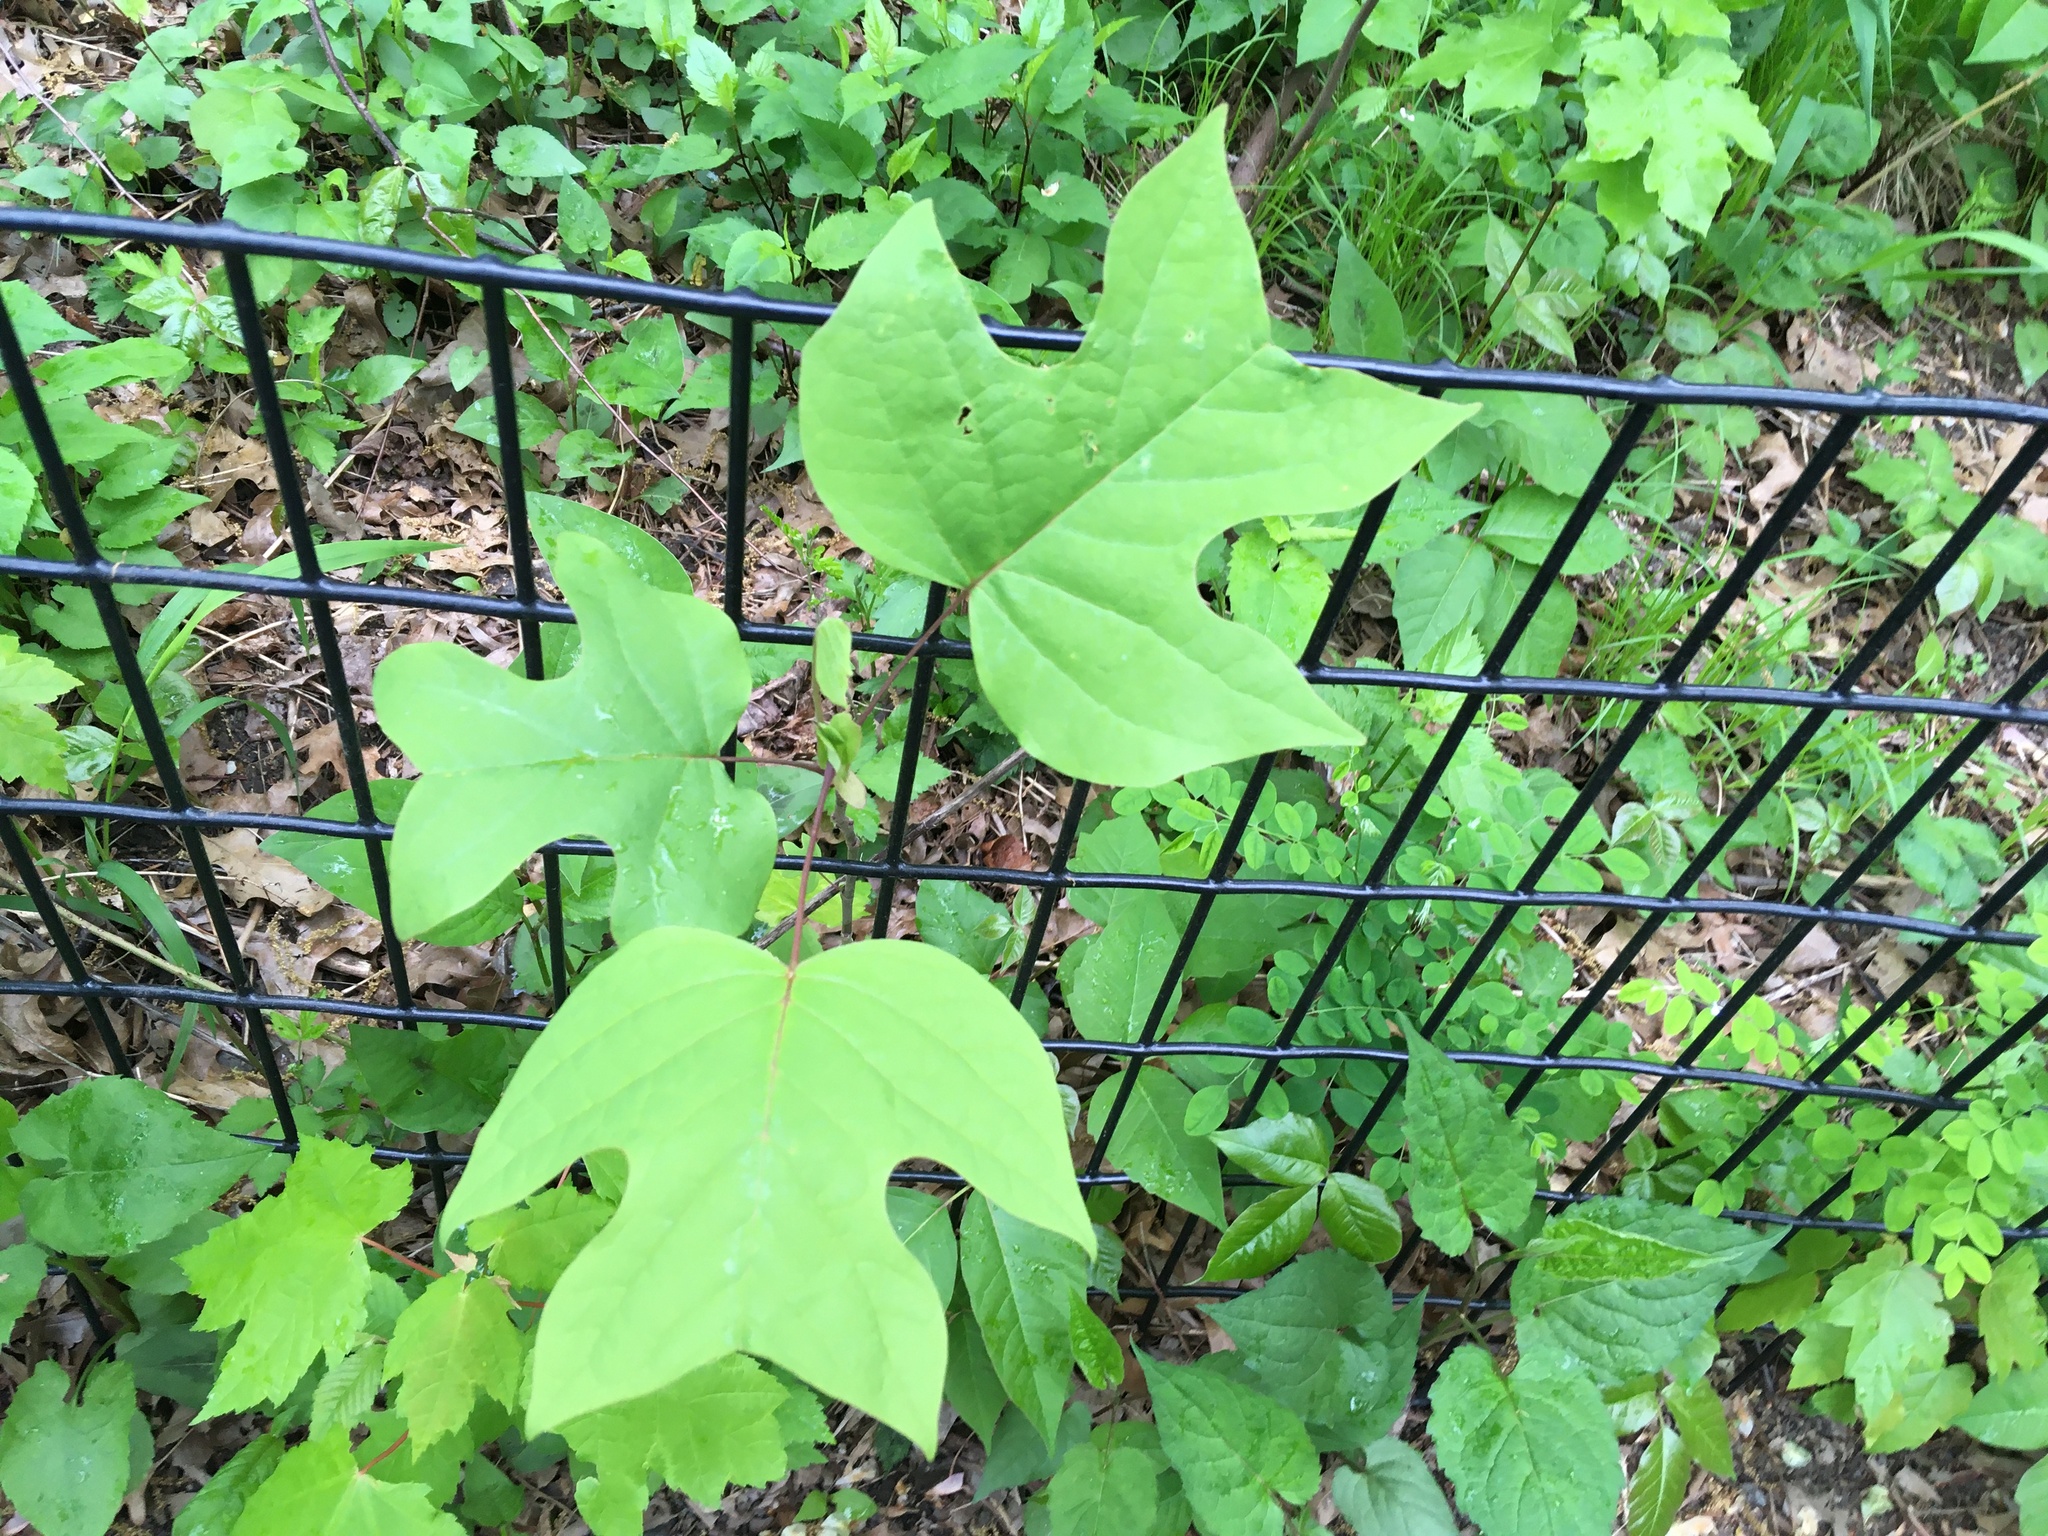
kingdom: Plantae
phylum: Tracheophyta
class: Magnoliopsida
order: Magnoliales
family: Magnoliaceae
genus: Liriodendron
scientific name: Liriodendron tulipifera
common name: Tulip tree
